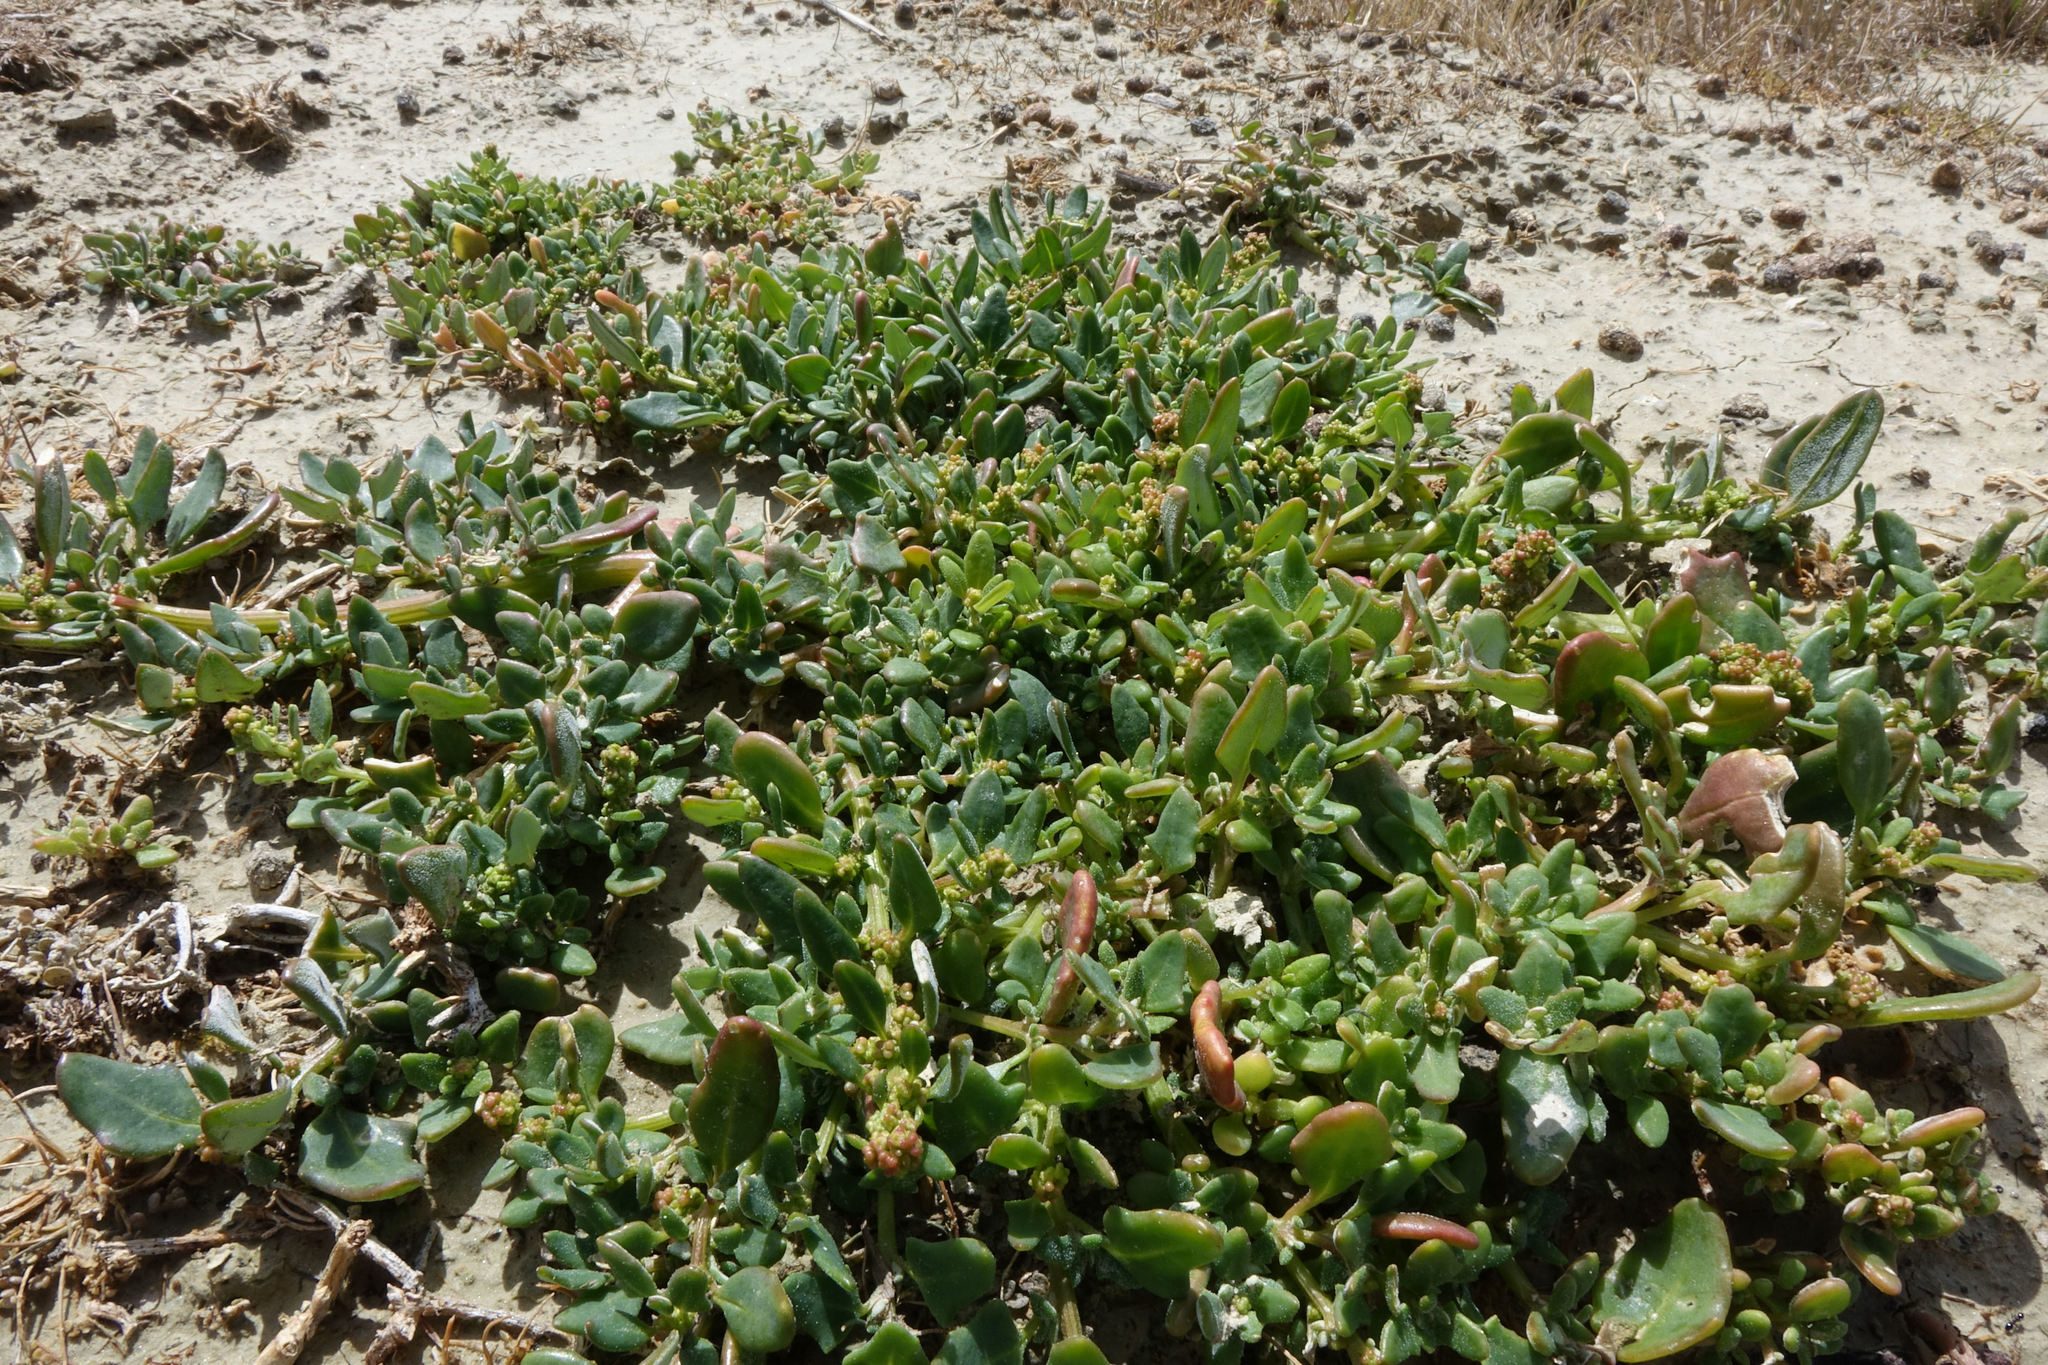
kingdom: Plantae
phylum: Tracheophyta
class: Magnoliopsida
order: Caryophyllales
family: Amaranthaceae
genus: Oxybasis
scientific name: Oxybasis ambigua
